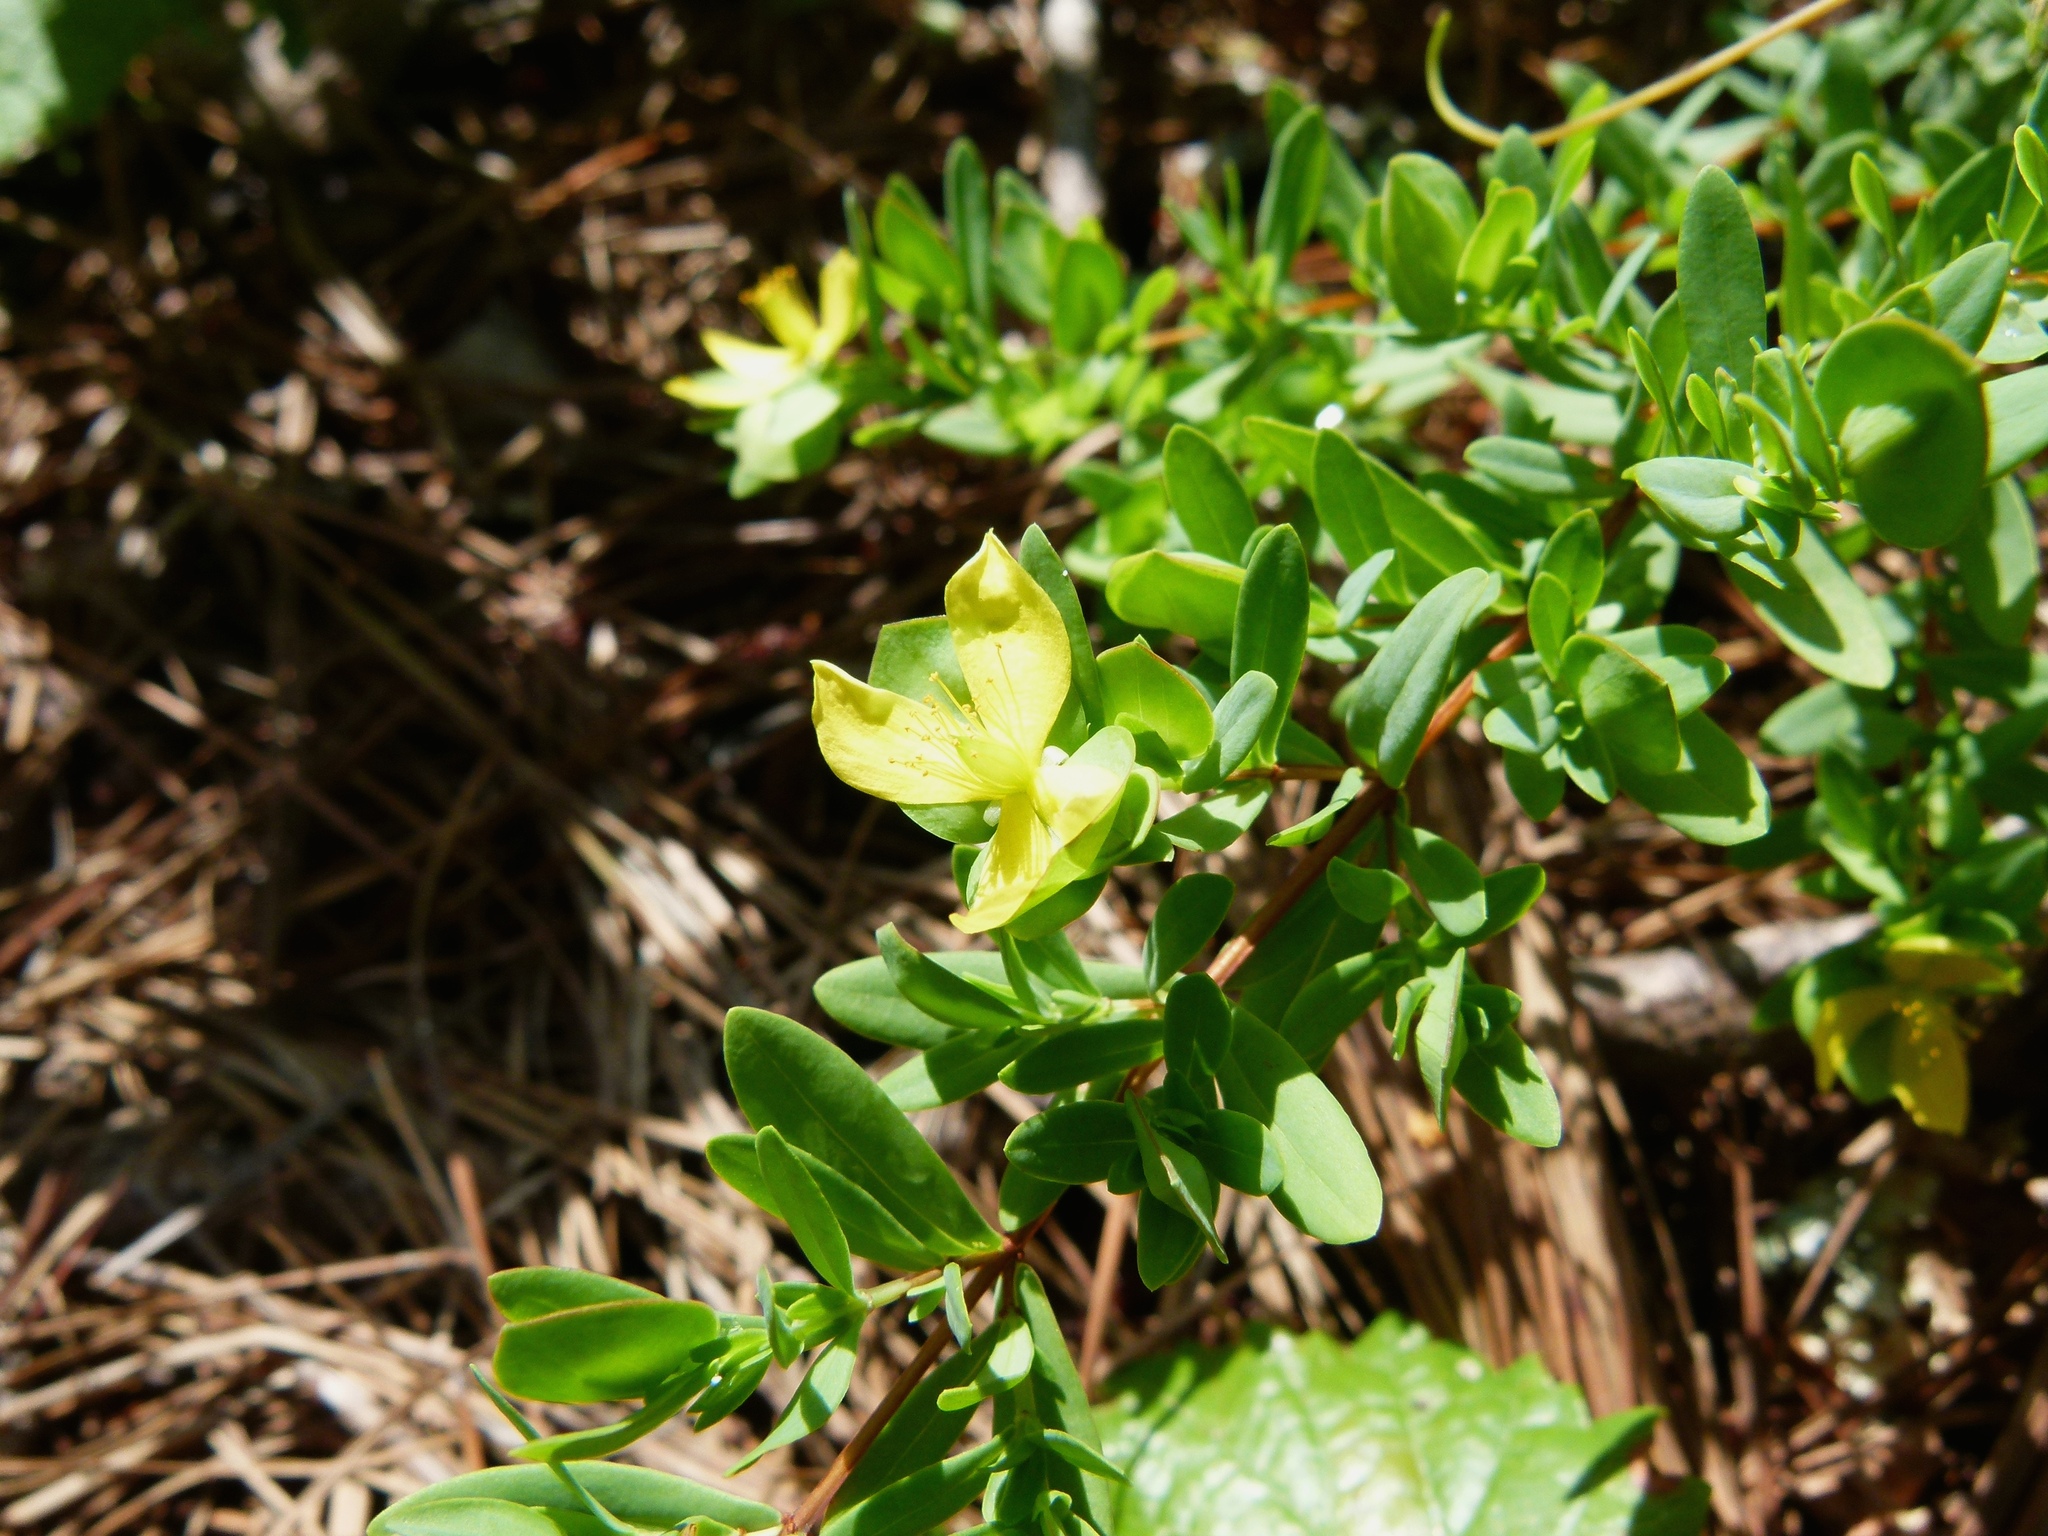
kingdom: Plantae
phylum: Tracheophyta
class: Magnoliopsida
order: Malpighiales
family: Hypericaceae
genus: Hypericum
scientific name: Hypericum hypericoides
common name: St. andrew's cross
